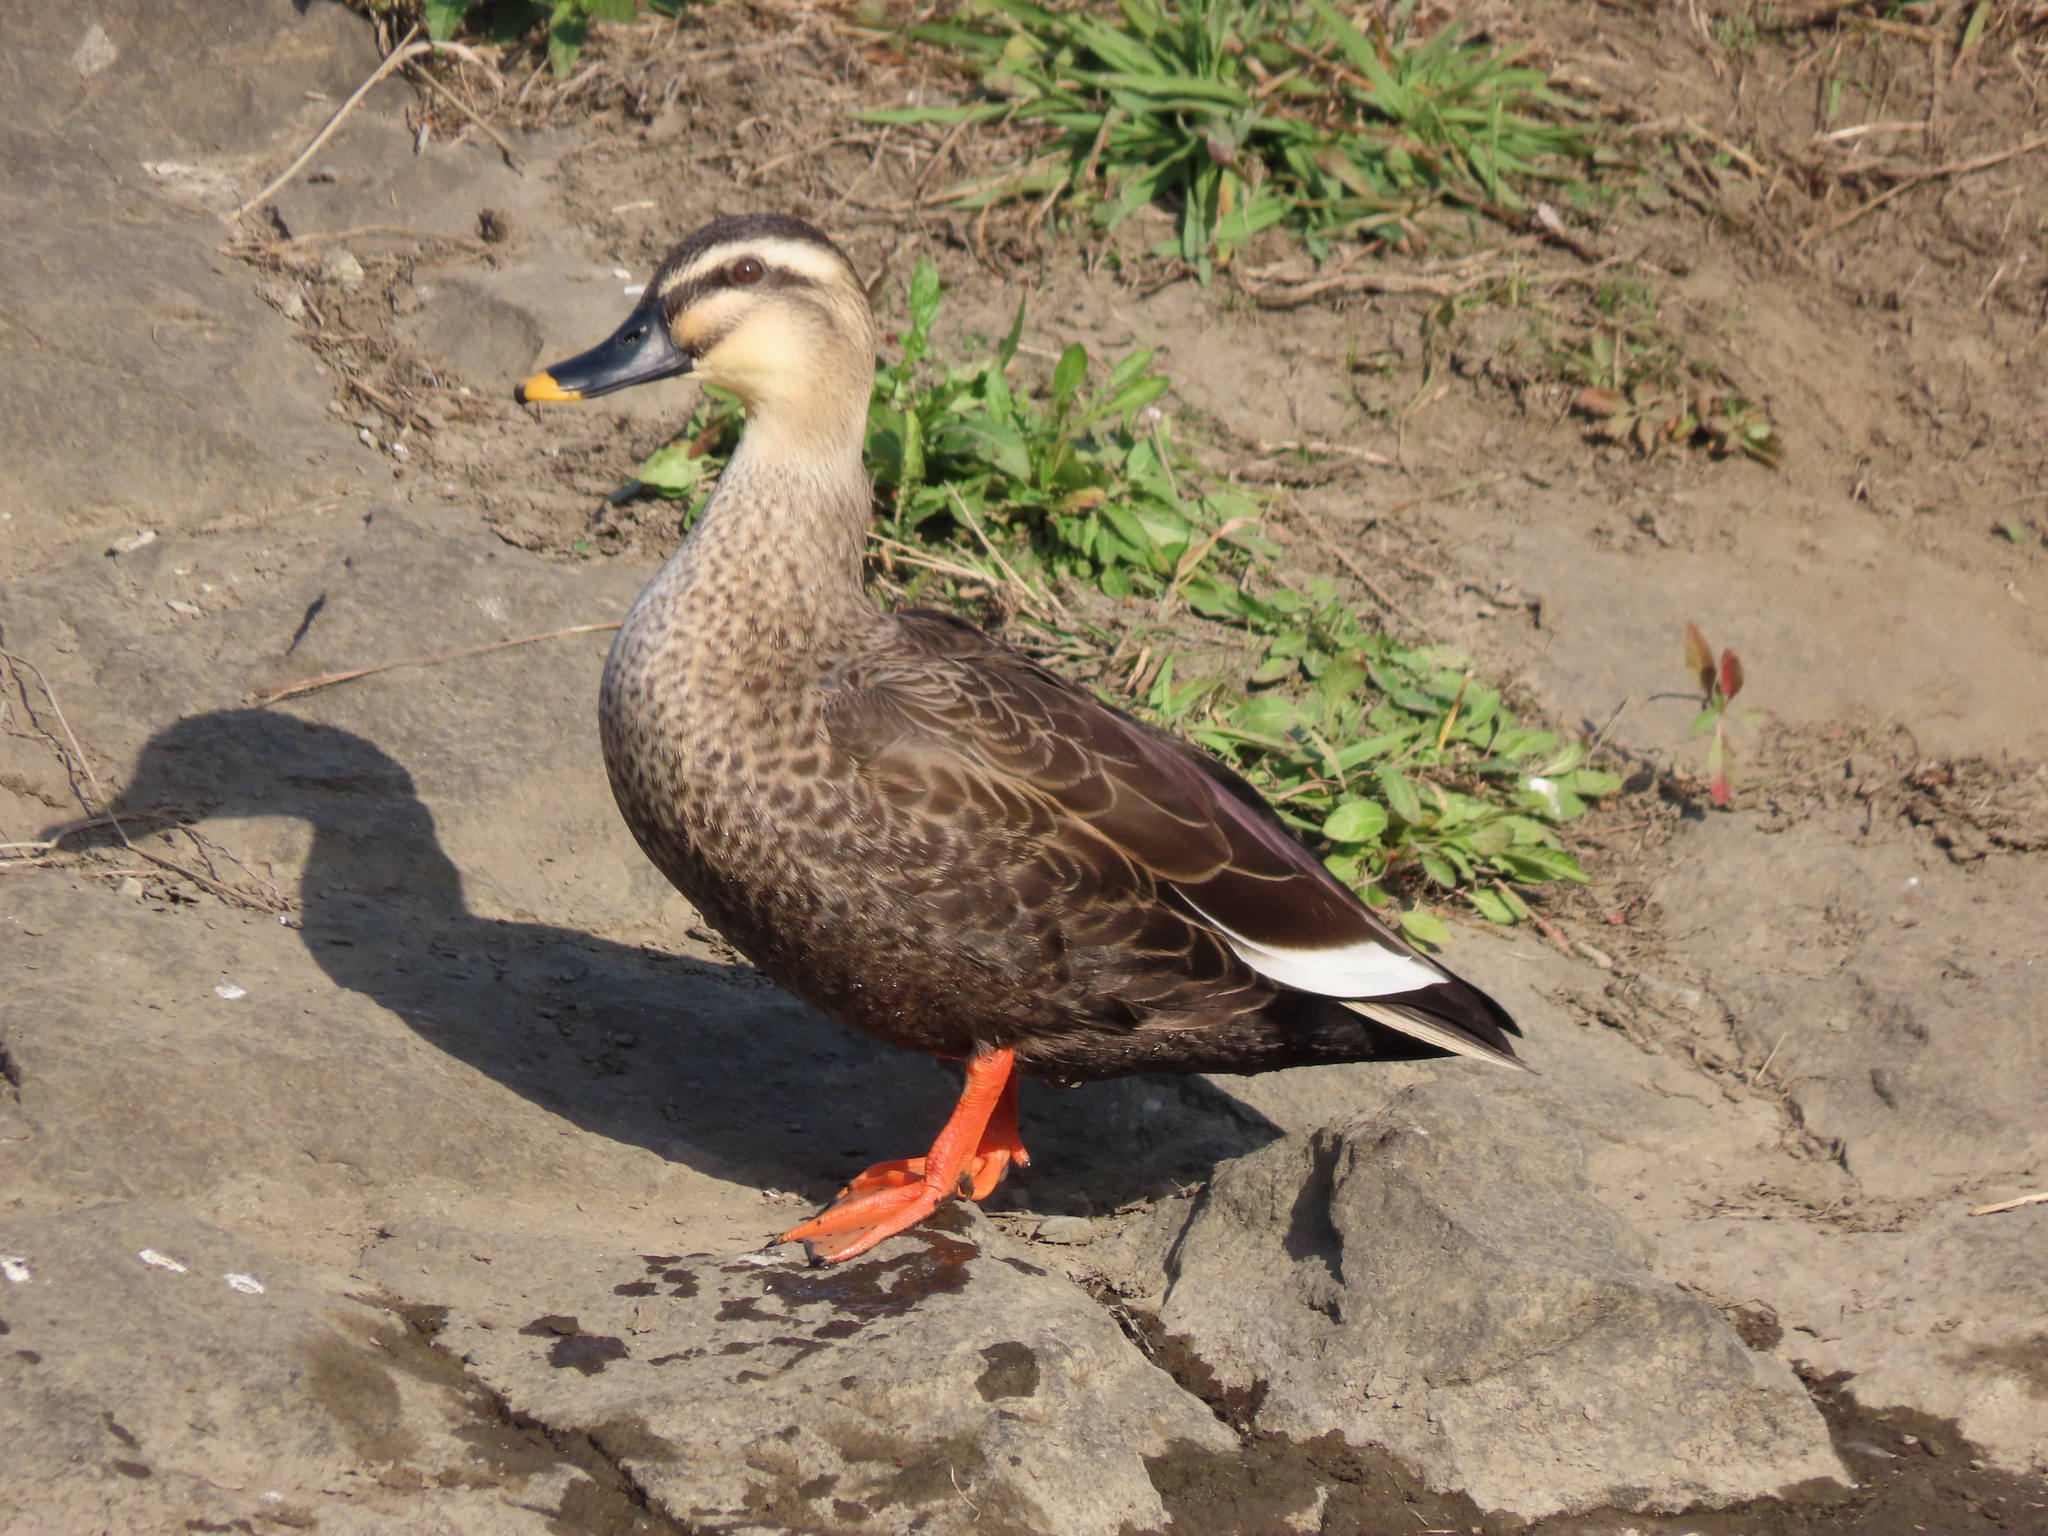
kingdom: Animalia
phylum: Chordata
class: Aves
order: Anseriformes
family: Anatidae
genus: Anas
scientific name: Anas zonorhyncha
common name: Eastern spot-billed duck
